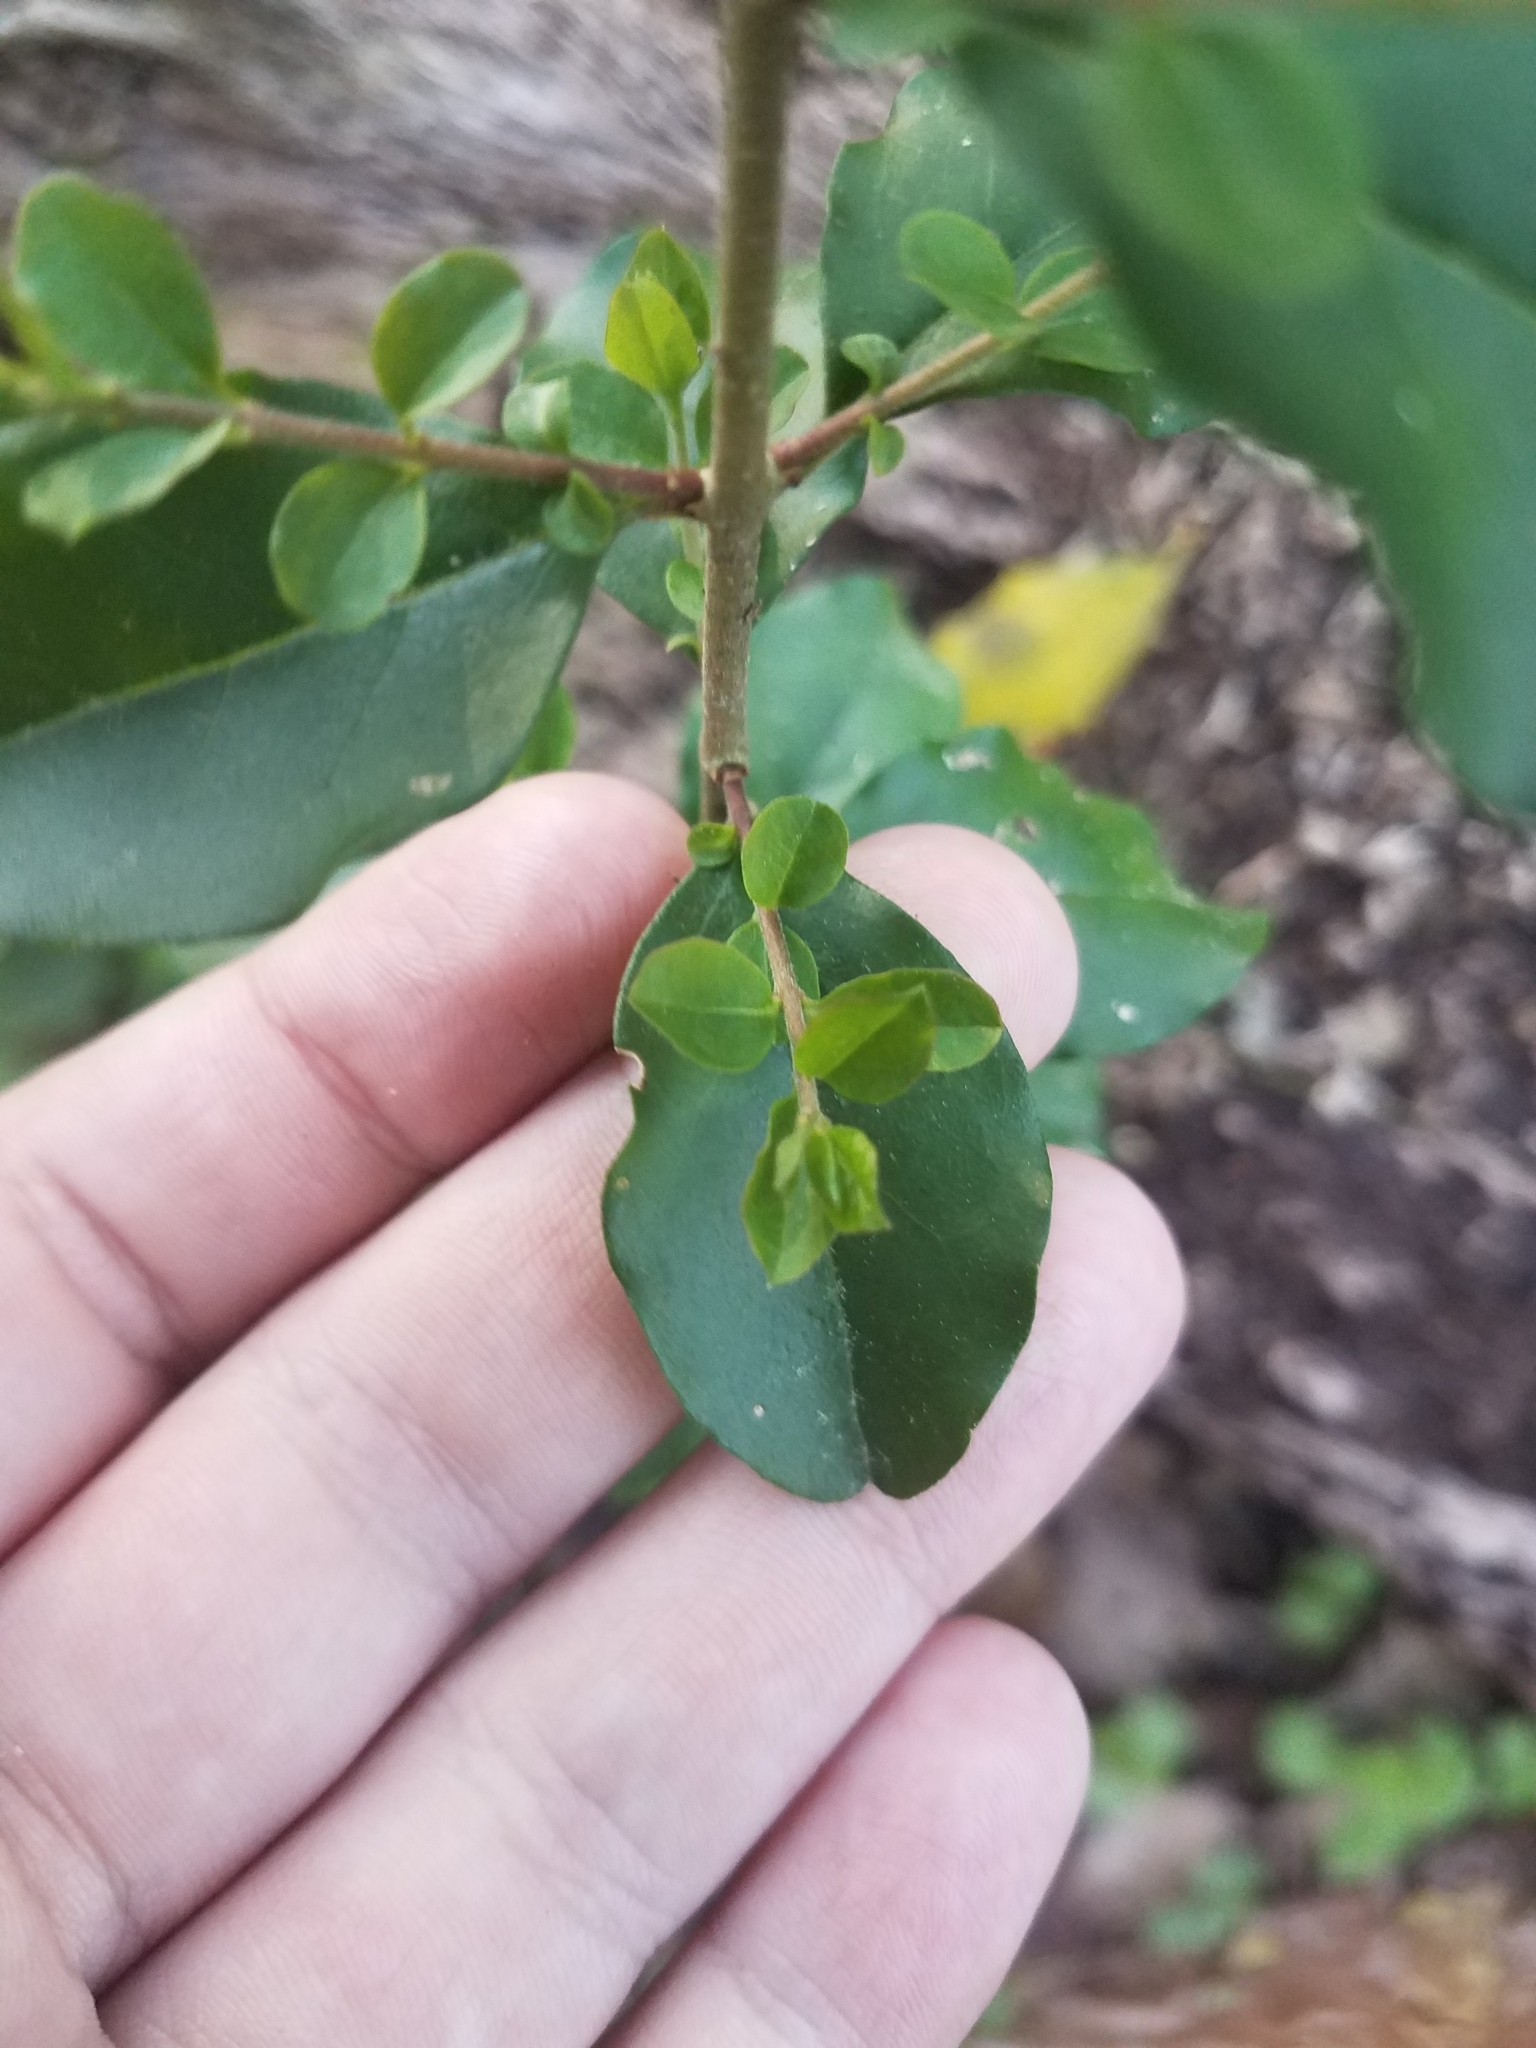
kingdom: Plantae
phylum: Tracheophyta
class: Magnoliopsida
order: Lamiales
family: Oleaceae
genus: Ligustrum
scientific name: Ligustrum sinense
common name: Chinese privet
